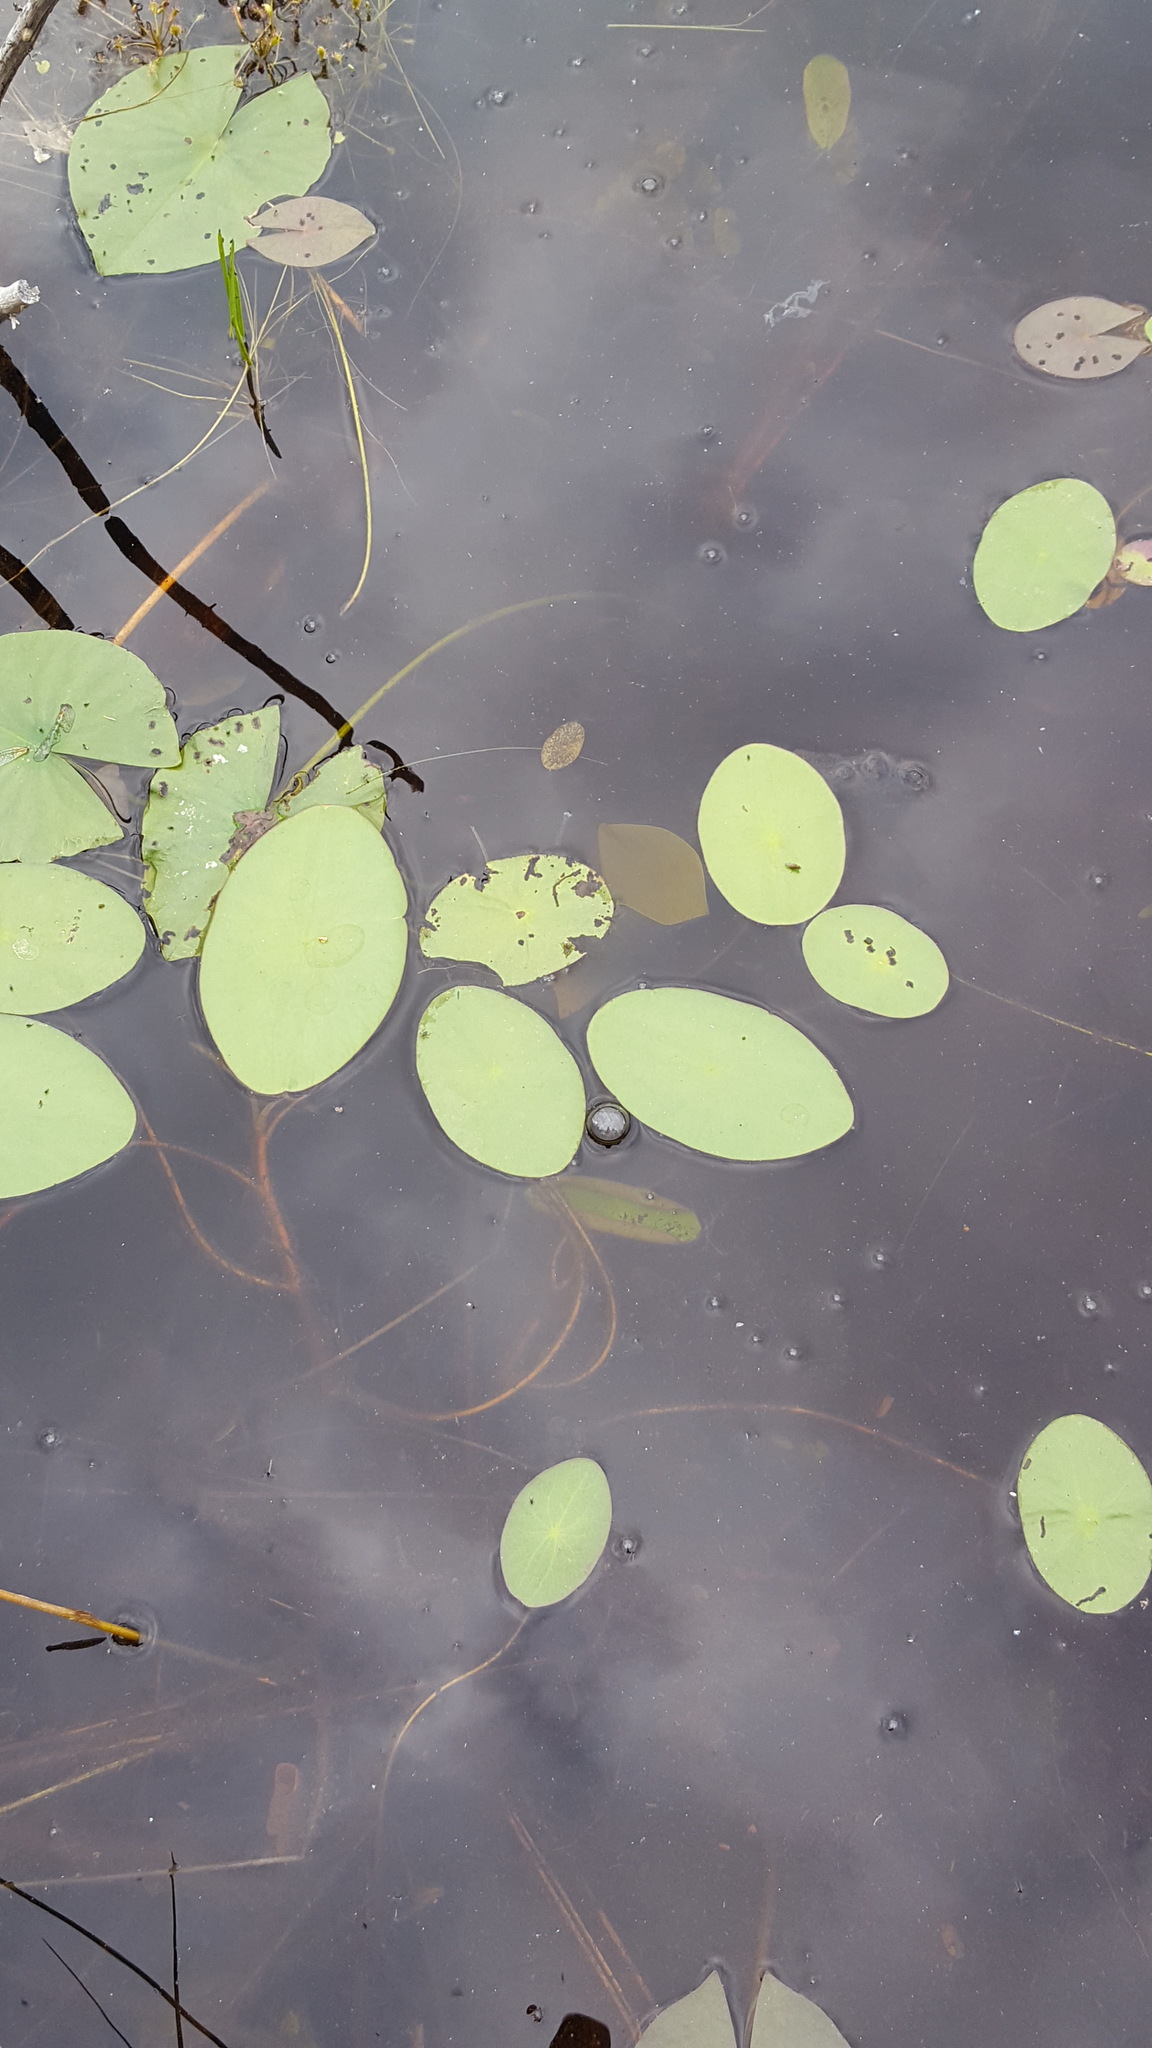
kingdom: Plantae
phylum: Tracheophyta
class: Magnoliopsida
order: Nymphaeales
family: Cabombaceae
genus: Brasenia
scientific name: Brasenia schreberi
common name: Water-shield
